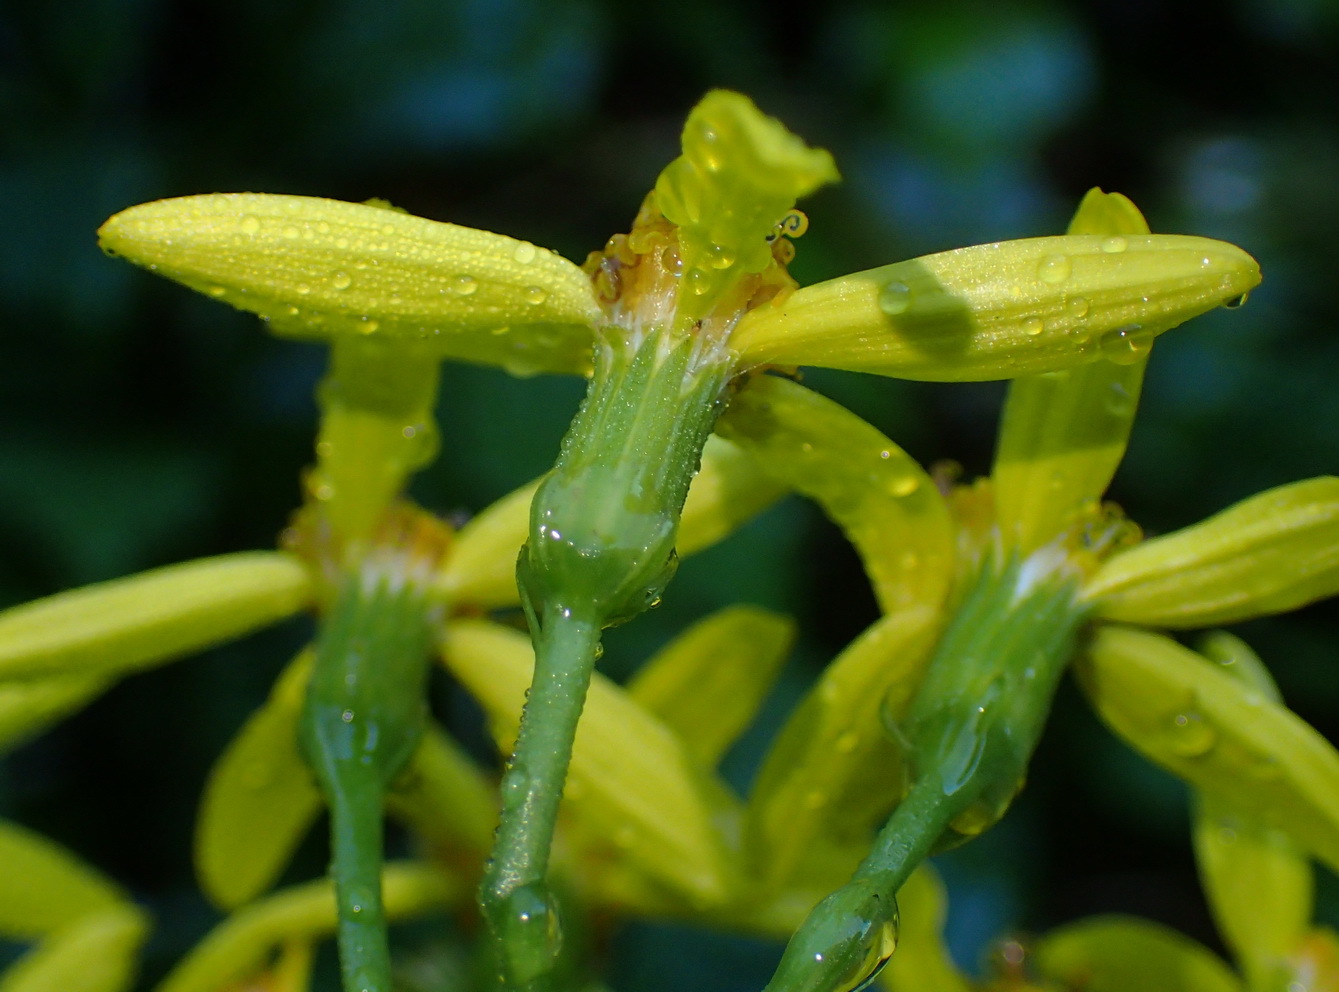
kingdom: Plantae
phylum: Tracheophyta
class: Magnoliopsida
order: Asterales
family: Asteraceae
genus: Senecio
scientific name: Senecio angulatus
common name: Climbing groundsel
